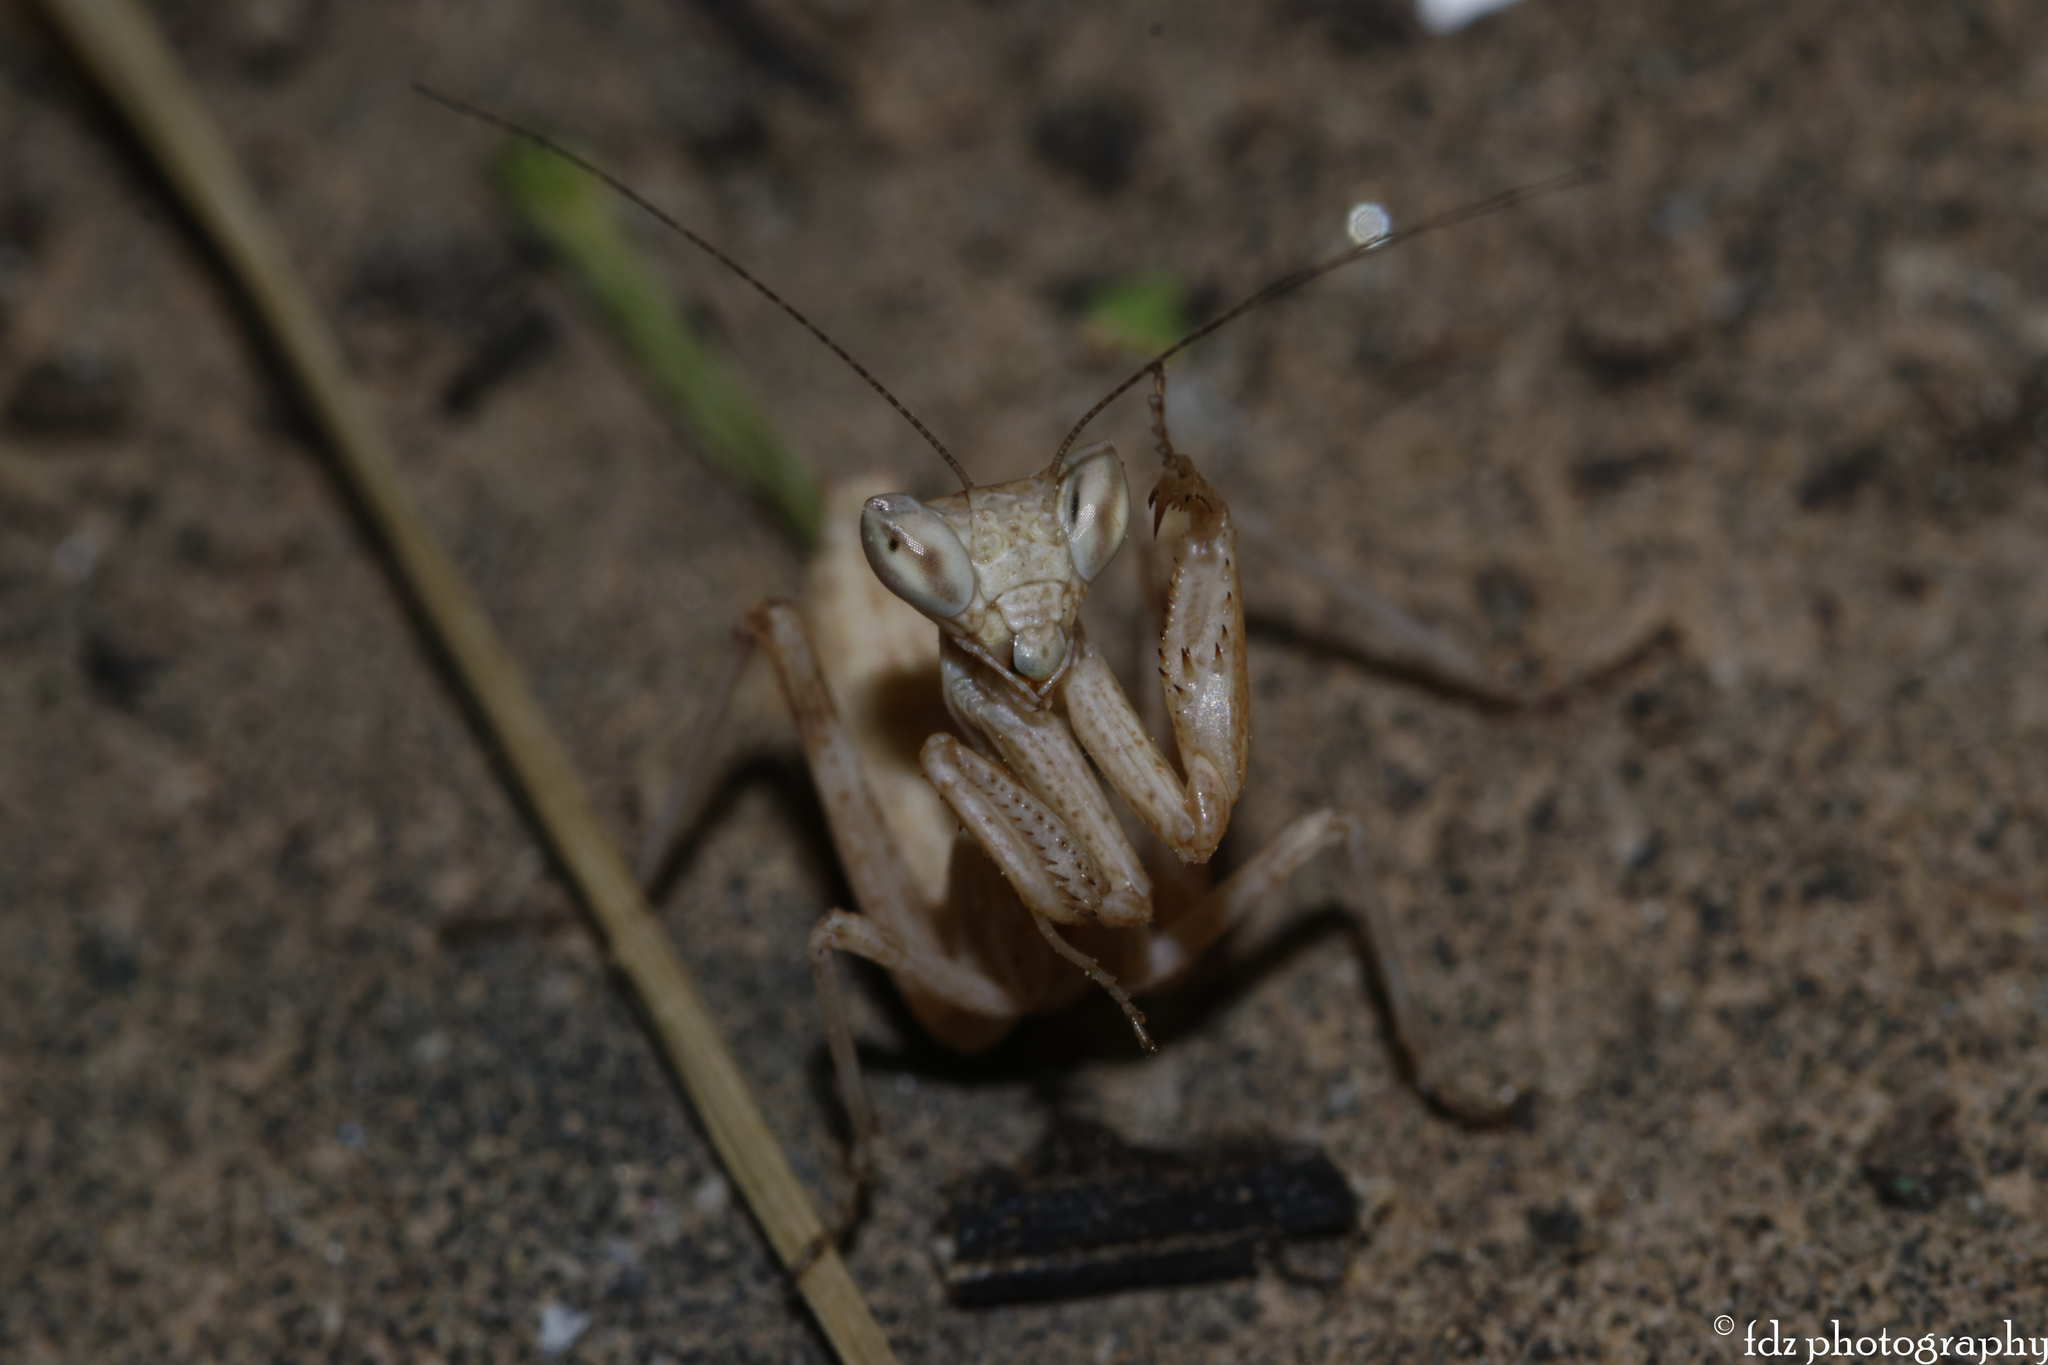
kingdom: Animalia
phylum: Arthropoda
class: Insecta
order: Mantodea
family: Amelidae
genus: Ameles
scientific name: Ameles spallanzania
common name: European dwarf mantis
